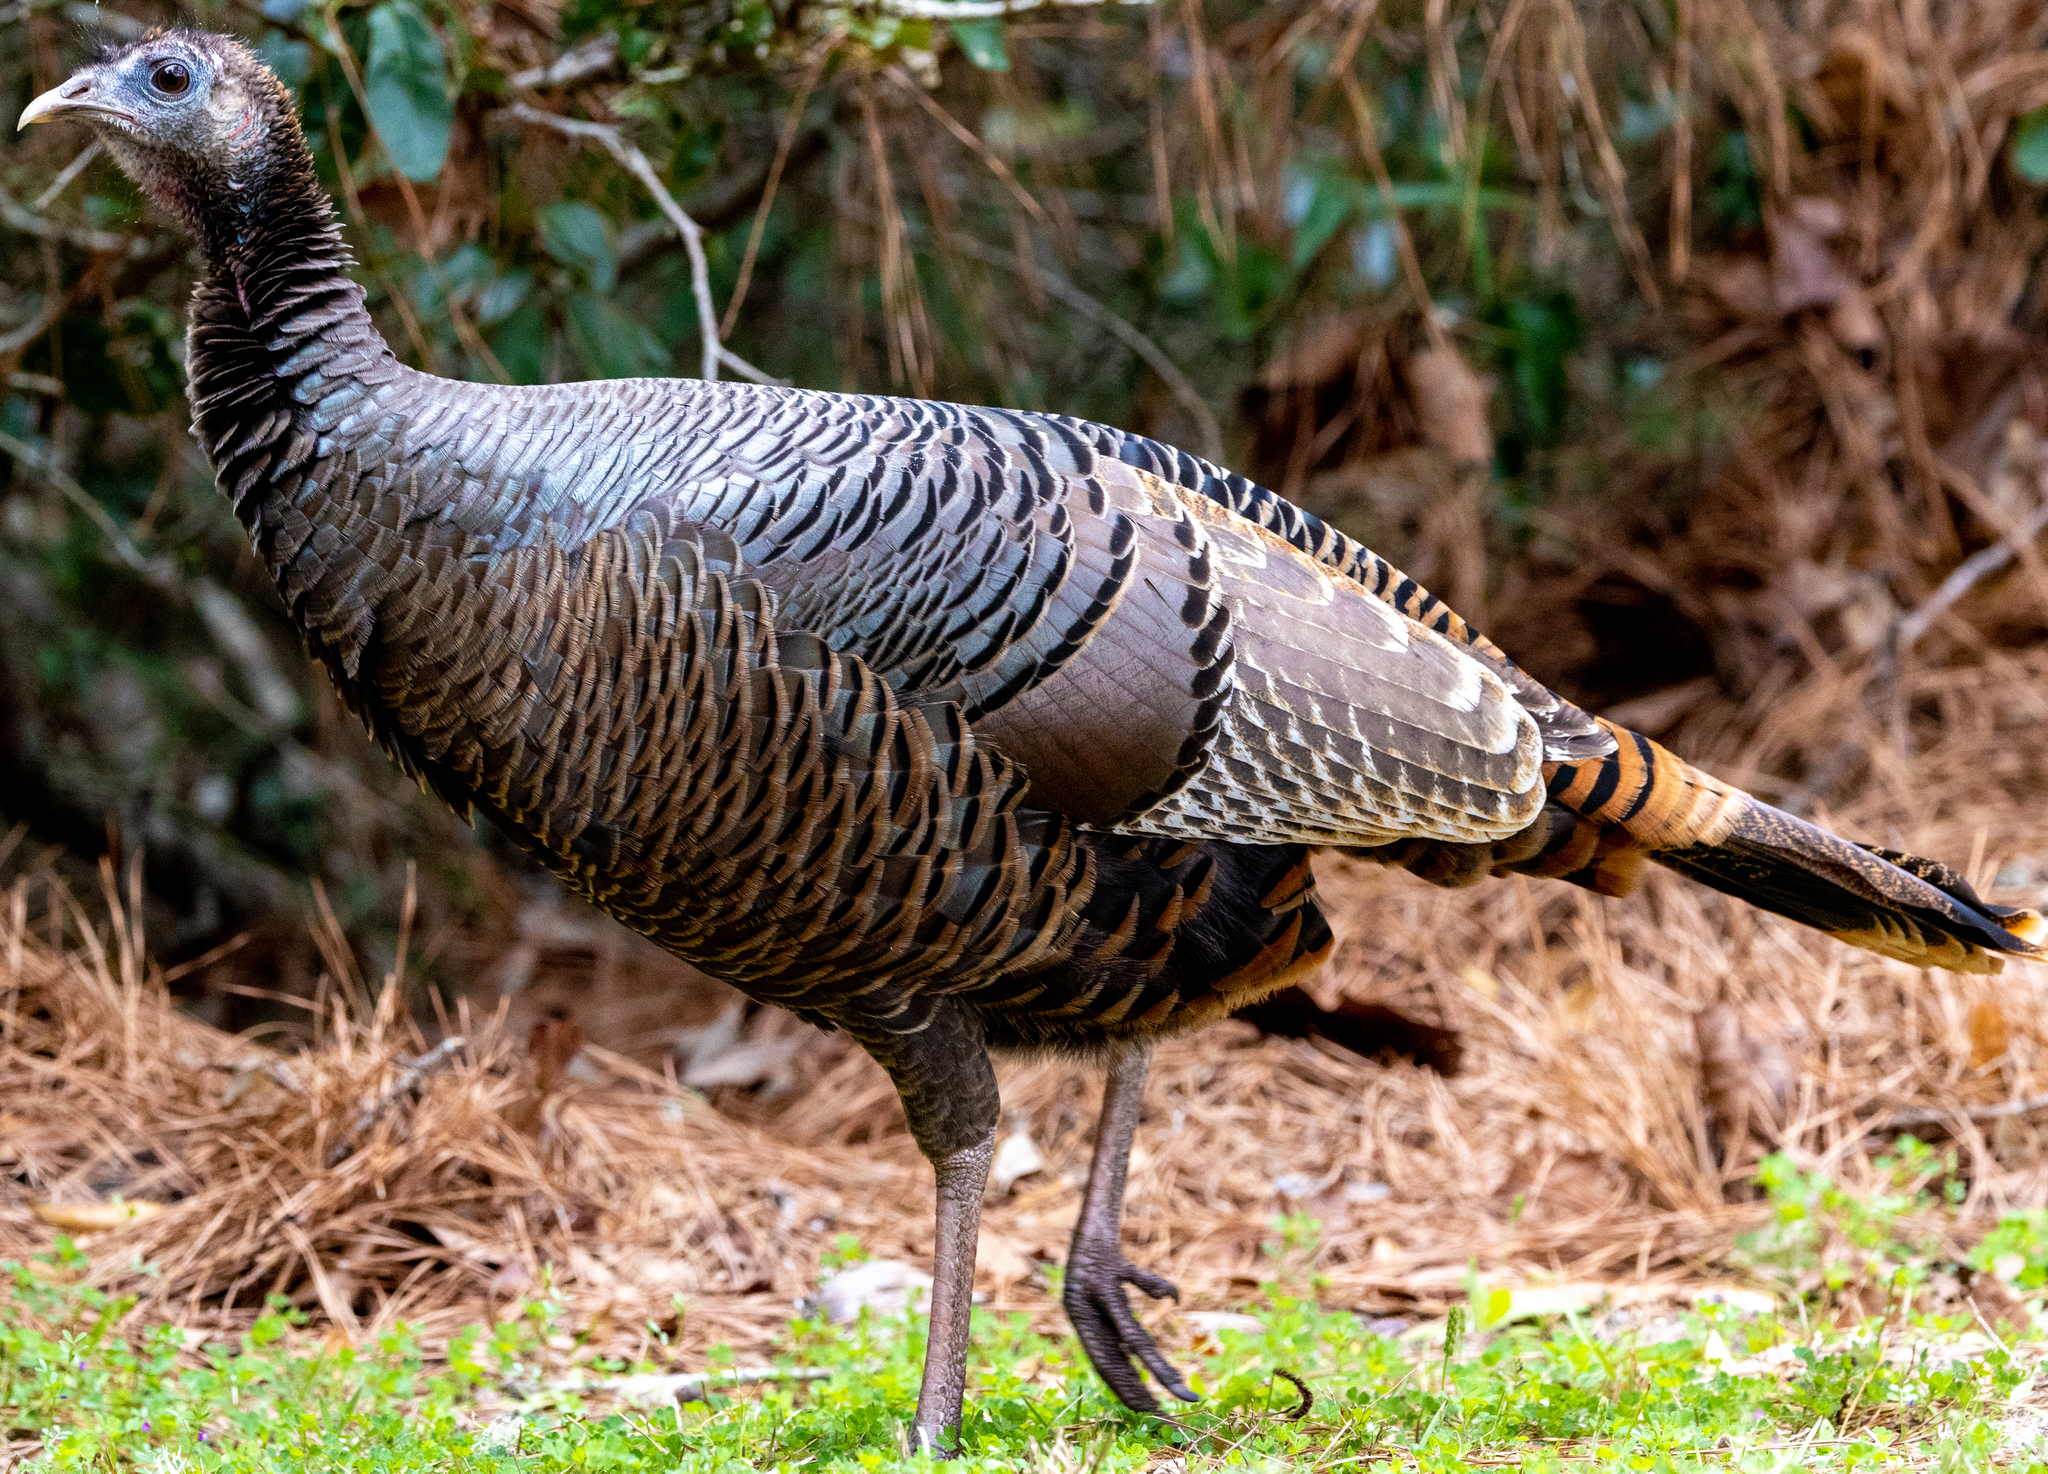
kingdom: Animalia
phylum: Chordata
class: Aves
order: Galliformes
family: Phasianidae
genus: Meleagris
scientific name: Meleagris gallopavo
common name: Wild turkey
